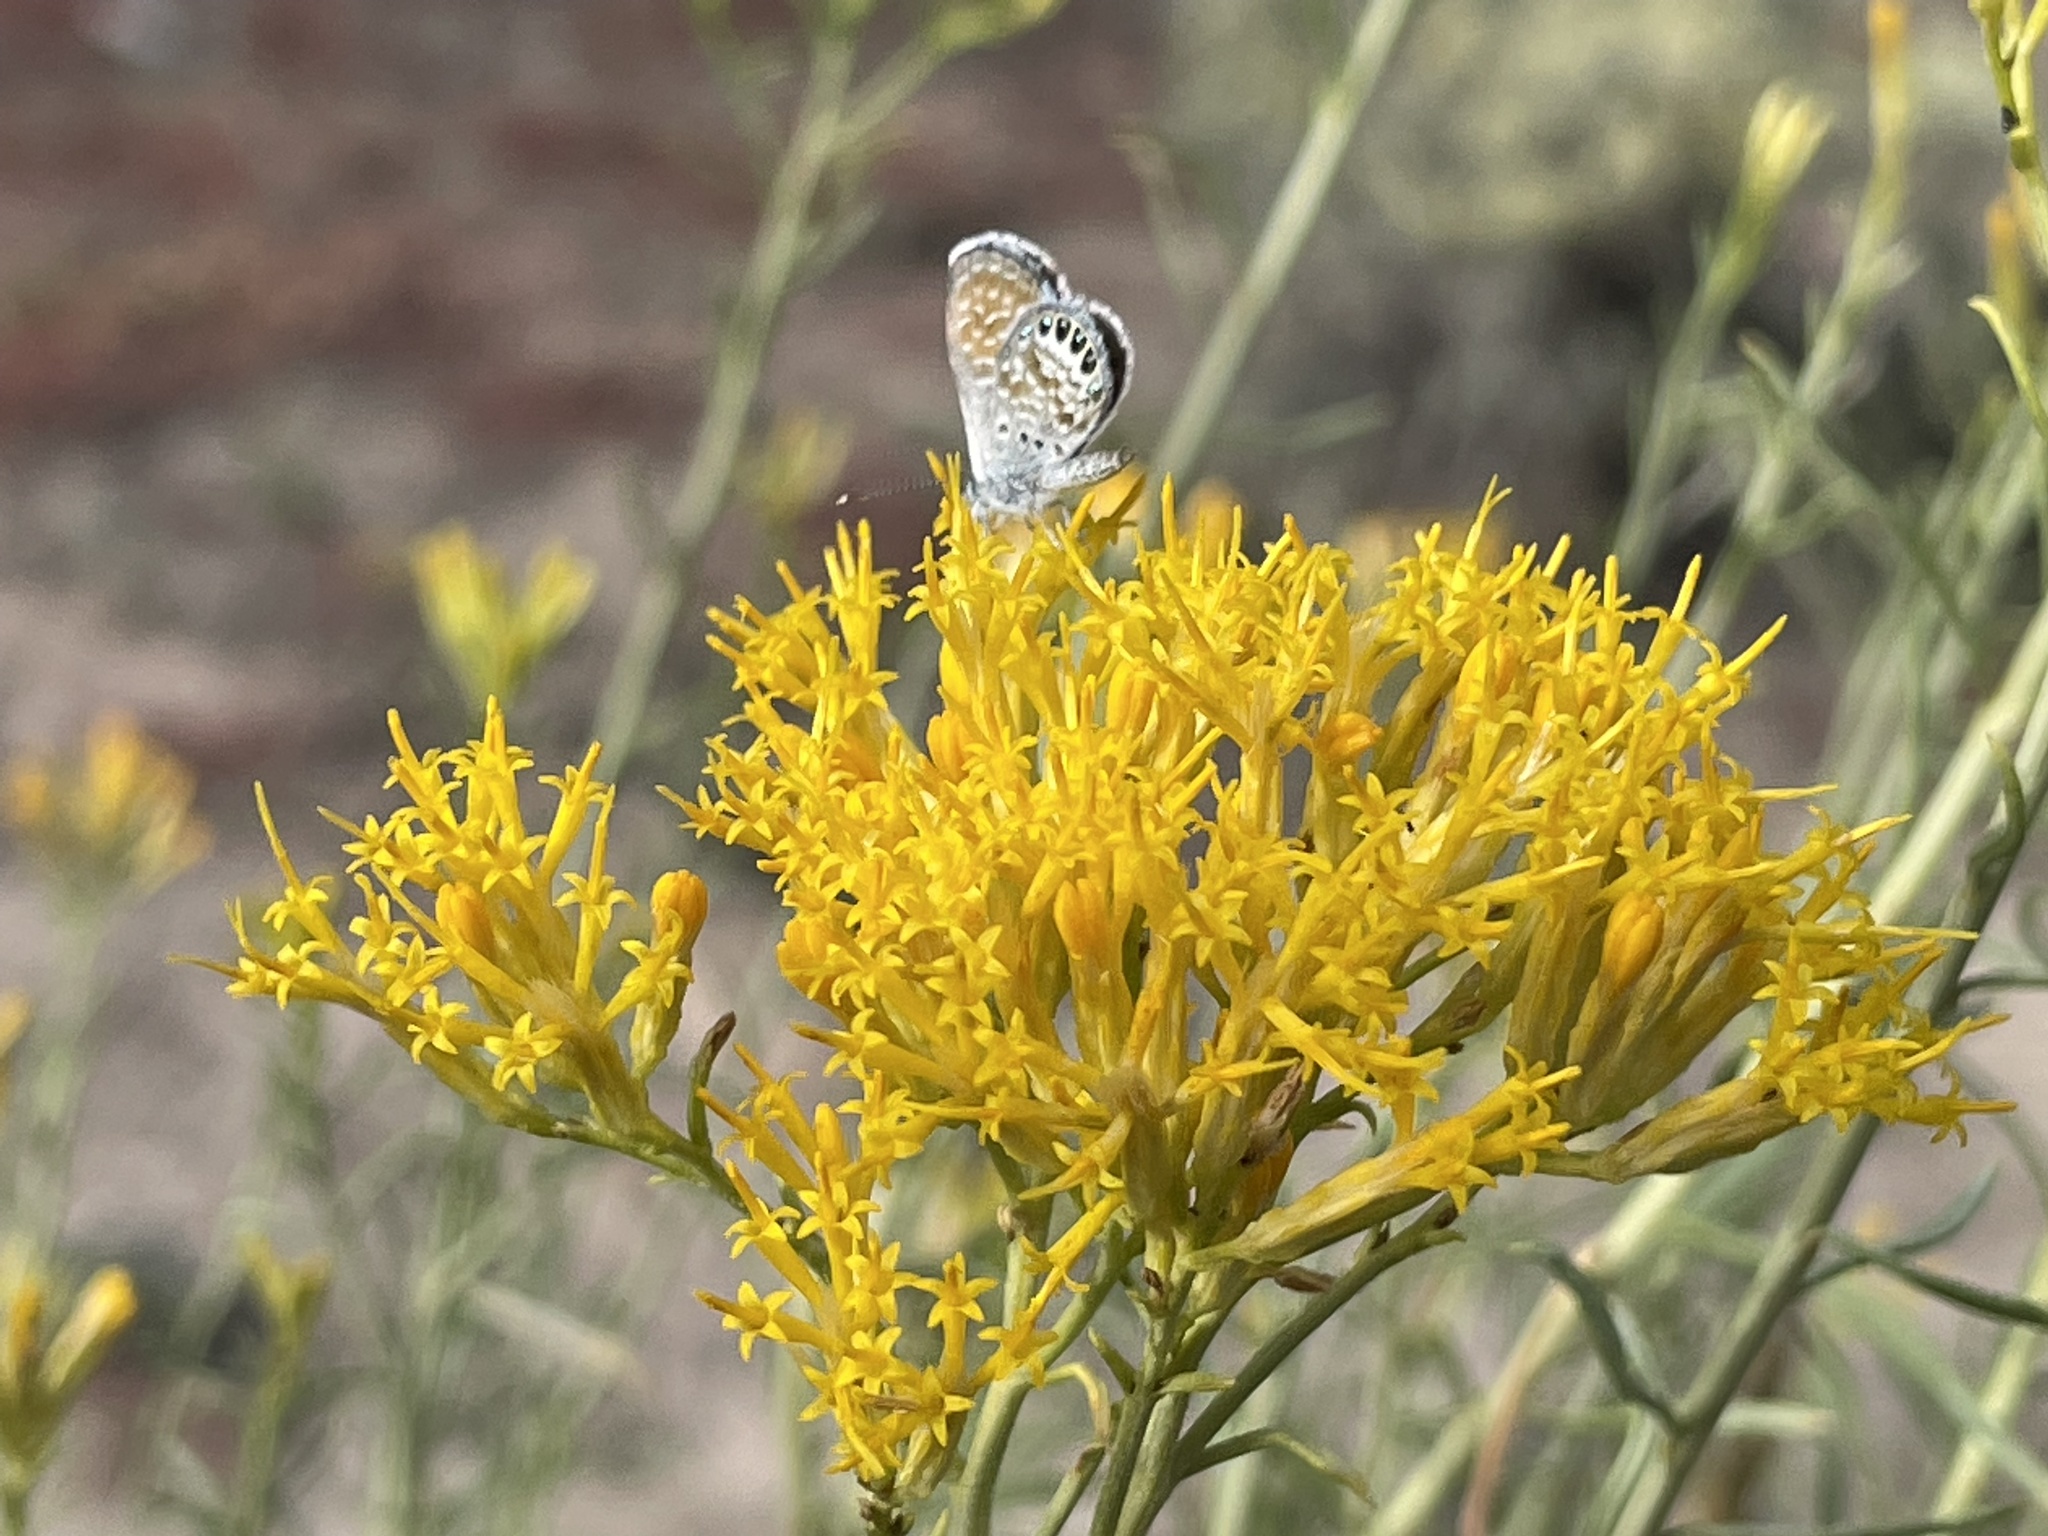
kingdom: Animalia
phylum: Arthropoda
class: Insecta
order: Lepidoptera
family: Lycaenidae
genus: Brephidium
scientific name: Brephidium exilis
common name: Pygmy blue
